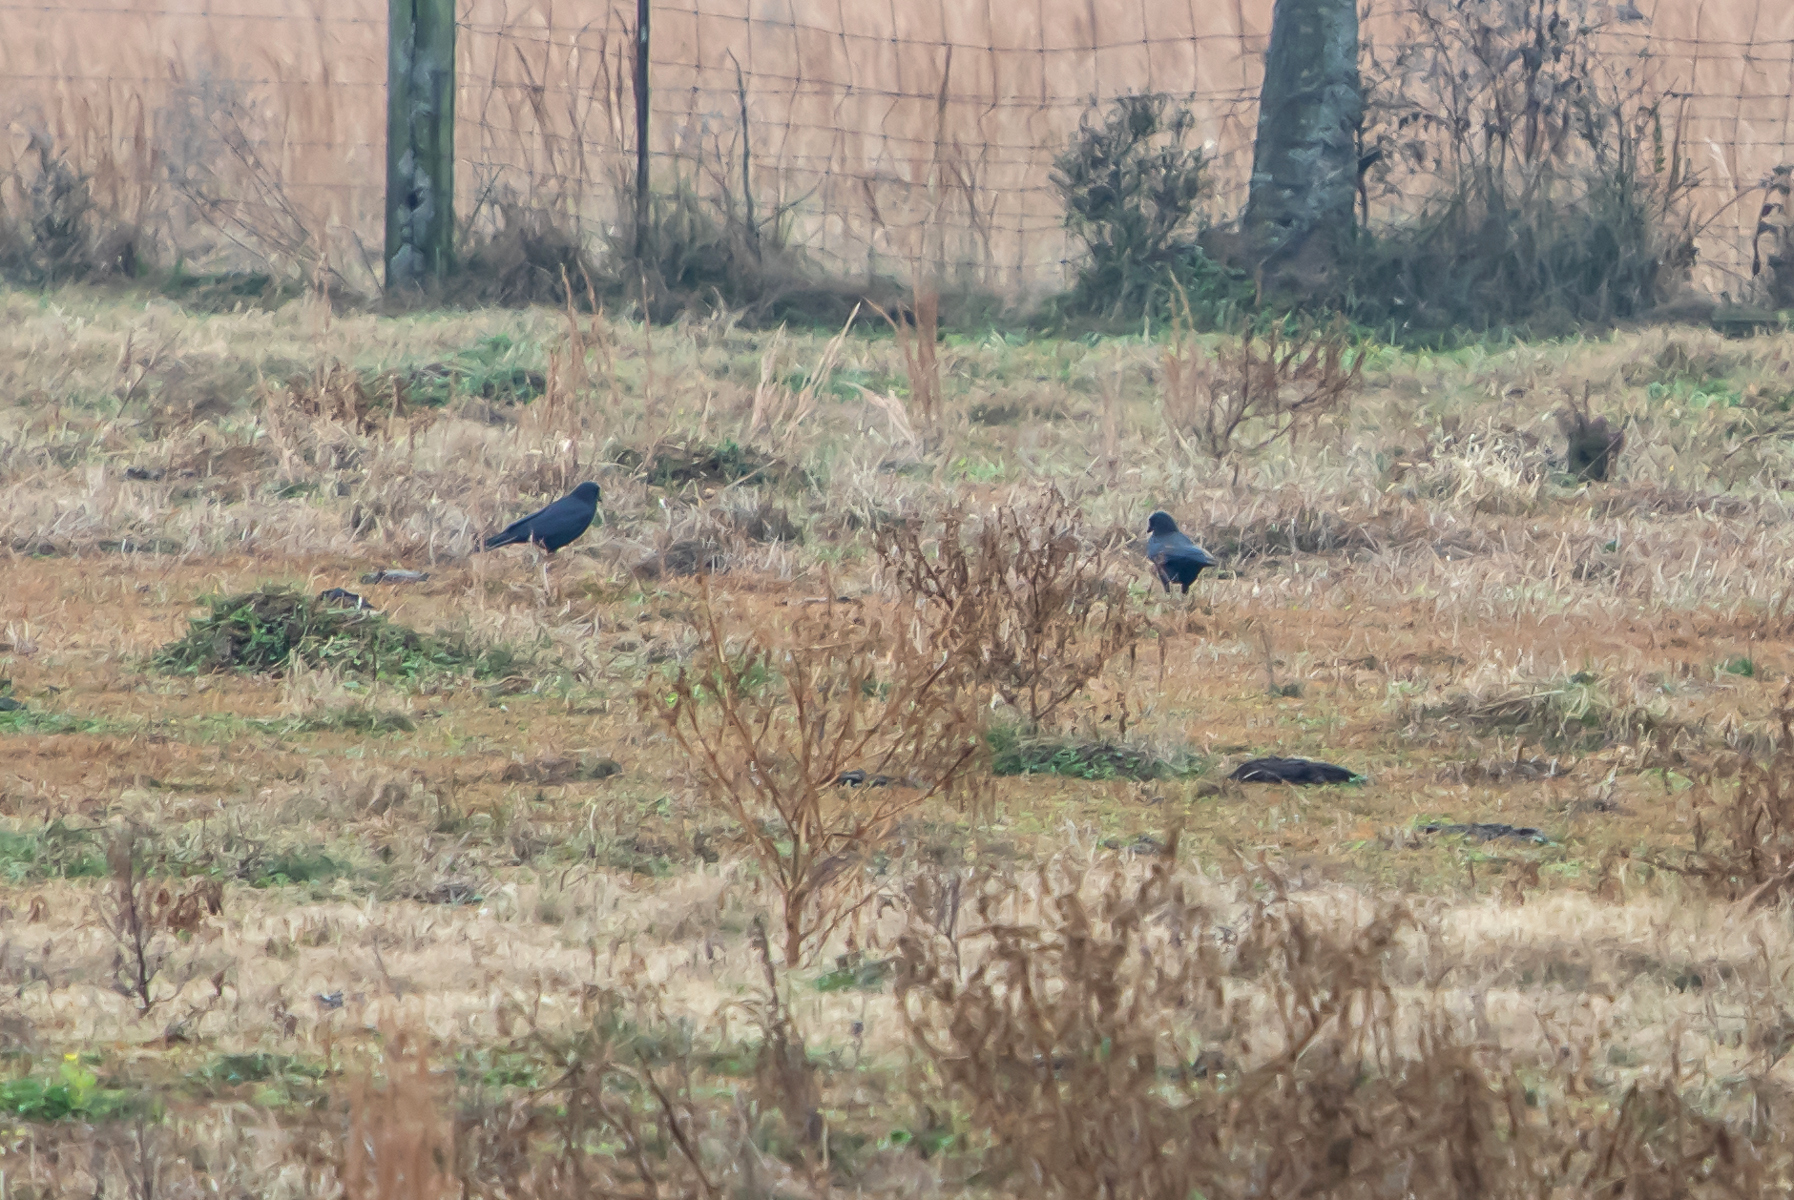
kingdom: Animalia
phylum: Chordata
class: Aves
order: Passeriformes
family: Corvidae
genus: Corvus
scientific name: Corvus brachyrhynchos
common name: American crow
